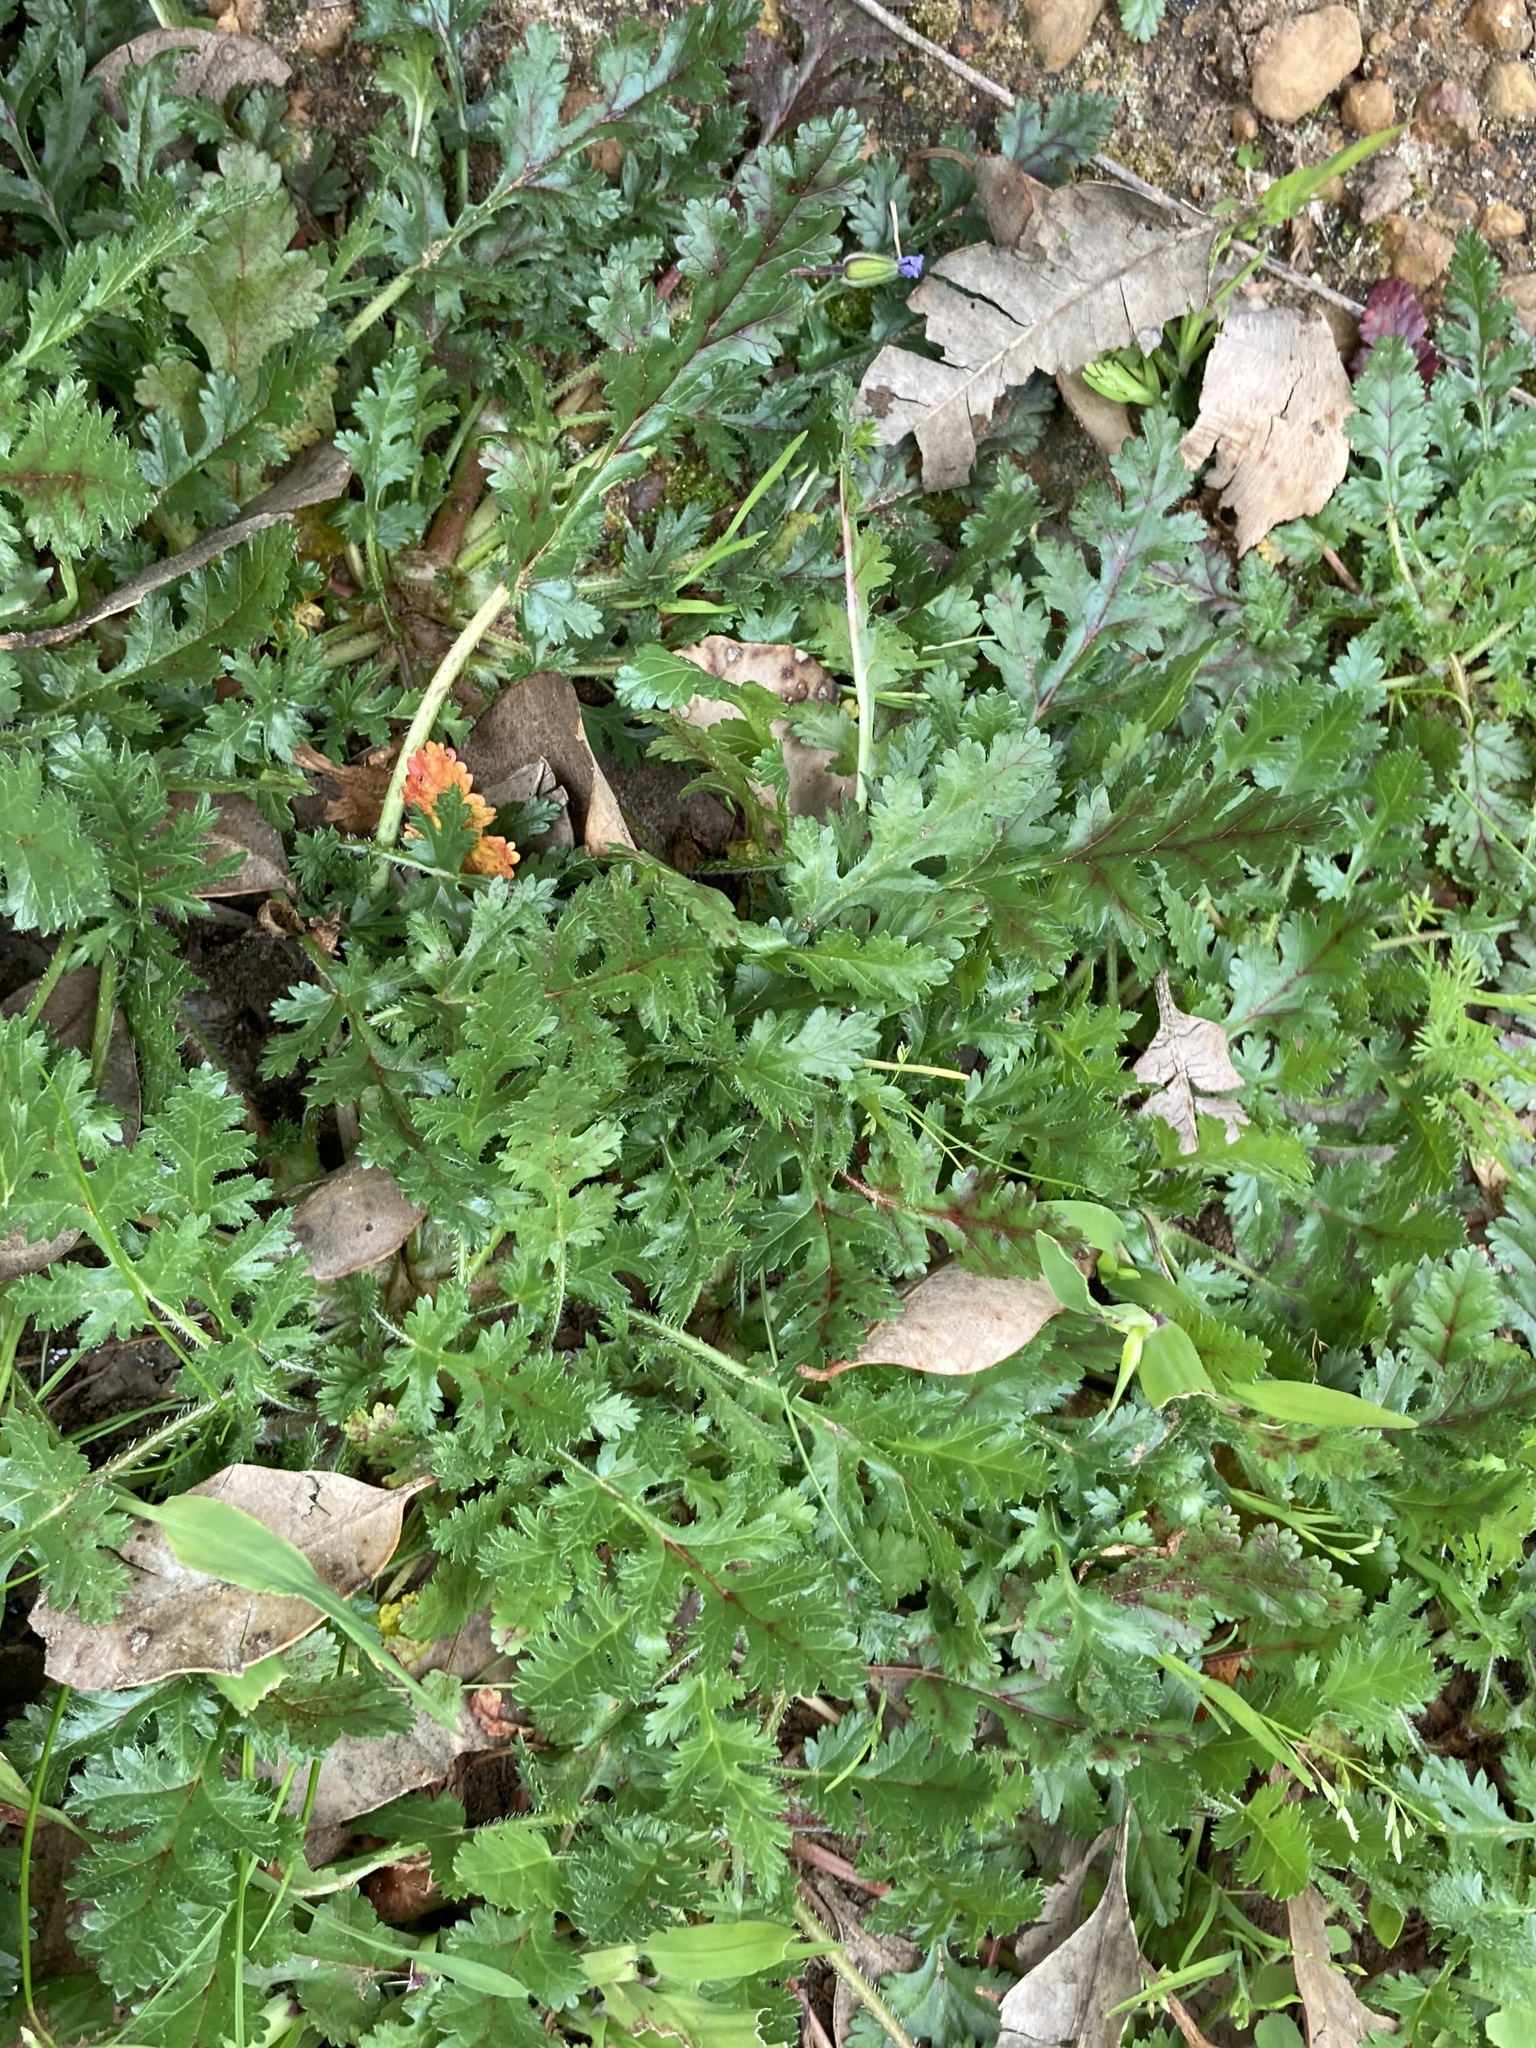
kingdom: Plantae
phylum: Tracheophyta
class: Magnoliopsida
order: Geraniales
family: Geraniaceae
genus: Erodium
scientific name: Erodium botrys
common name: Mediterranean stork's-bill
